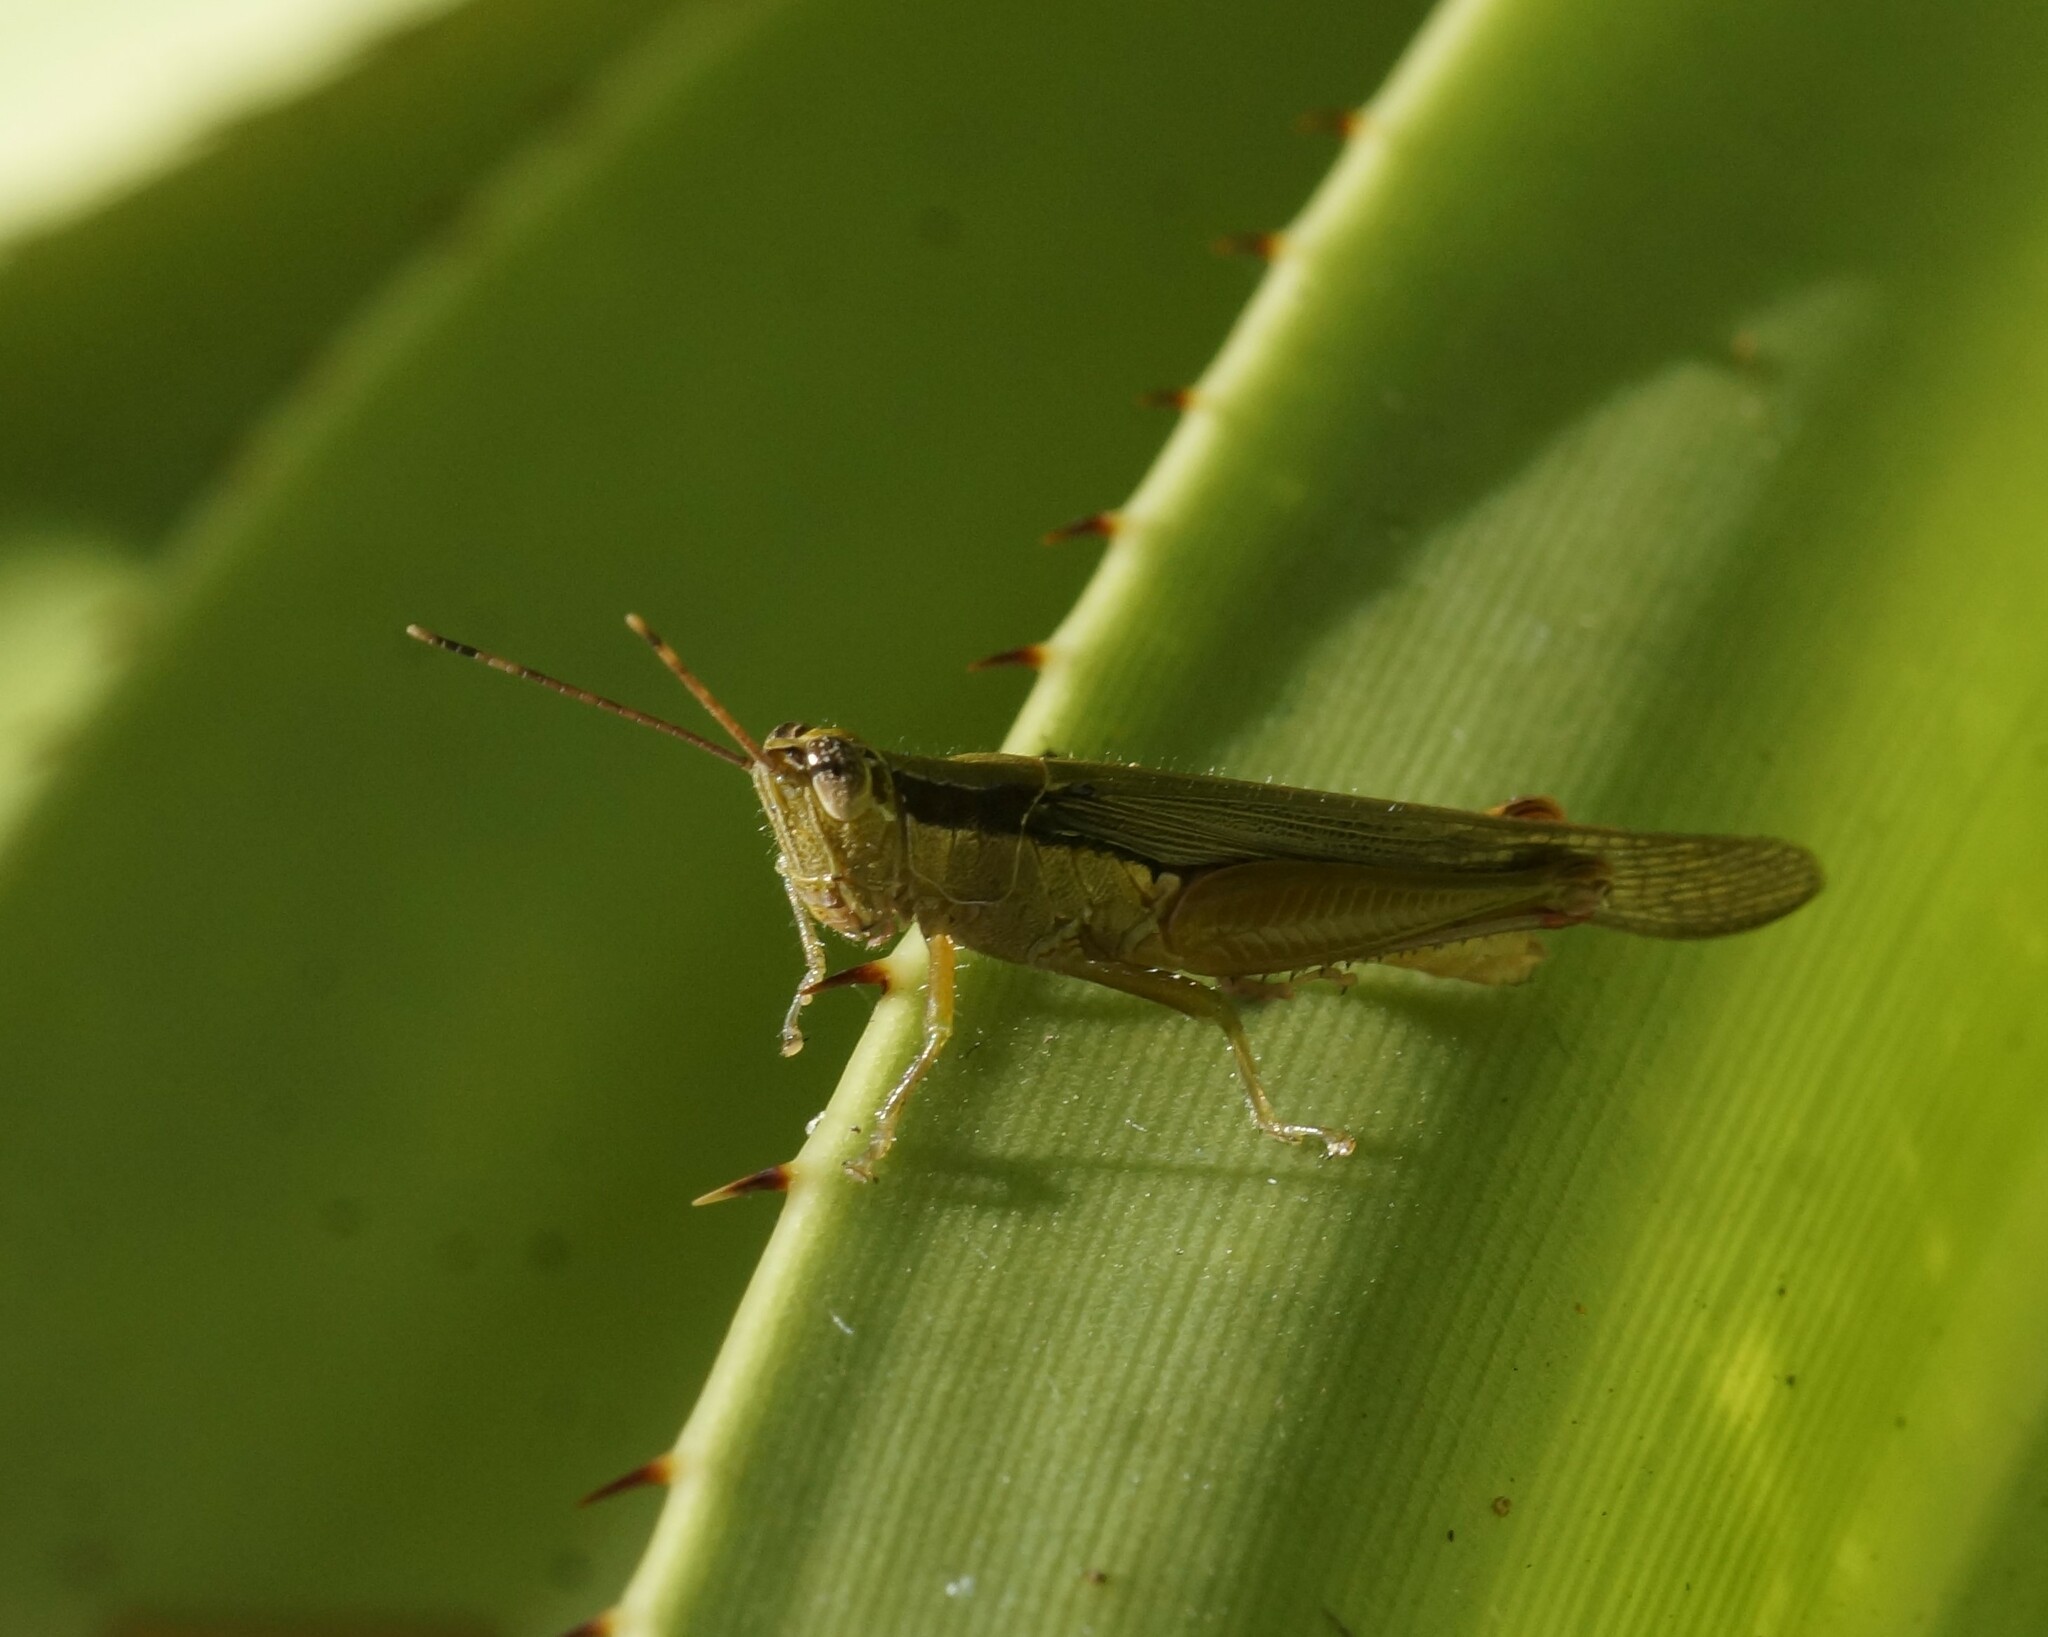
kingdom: Animalia
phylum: Arthropoda
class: Insecta
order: Orthoptera
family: Acrididae
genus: Gesonula
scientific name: Gesonula mundata
